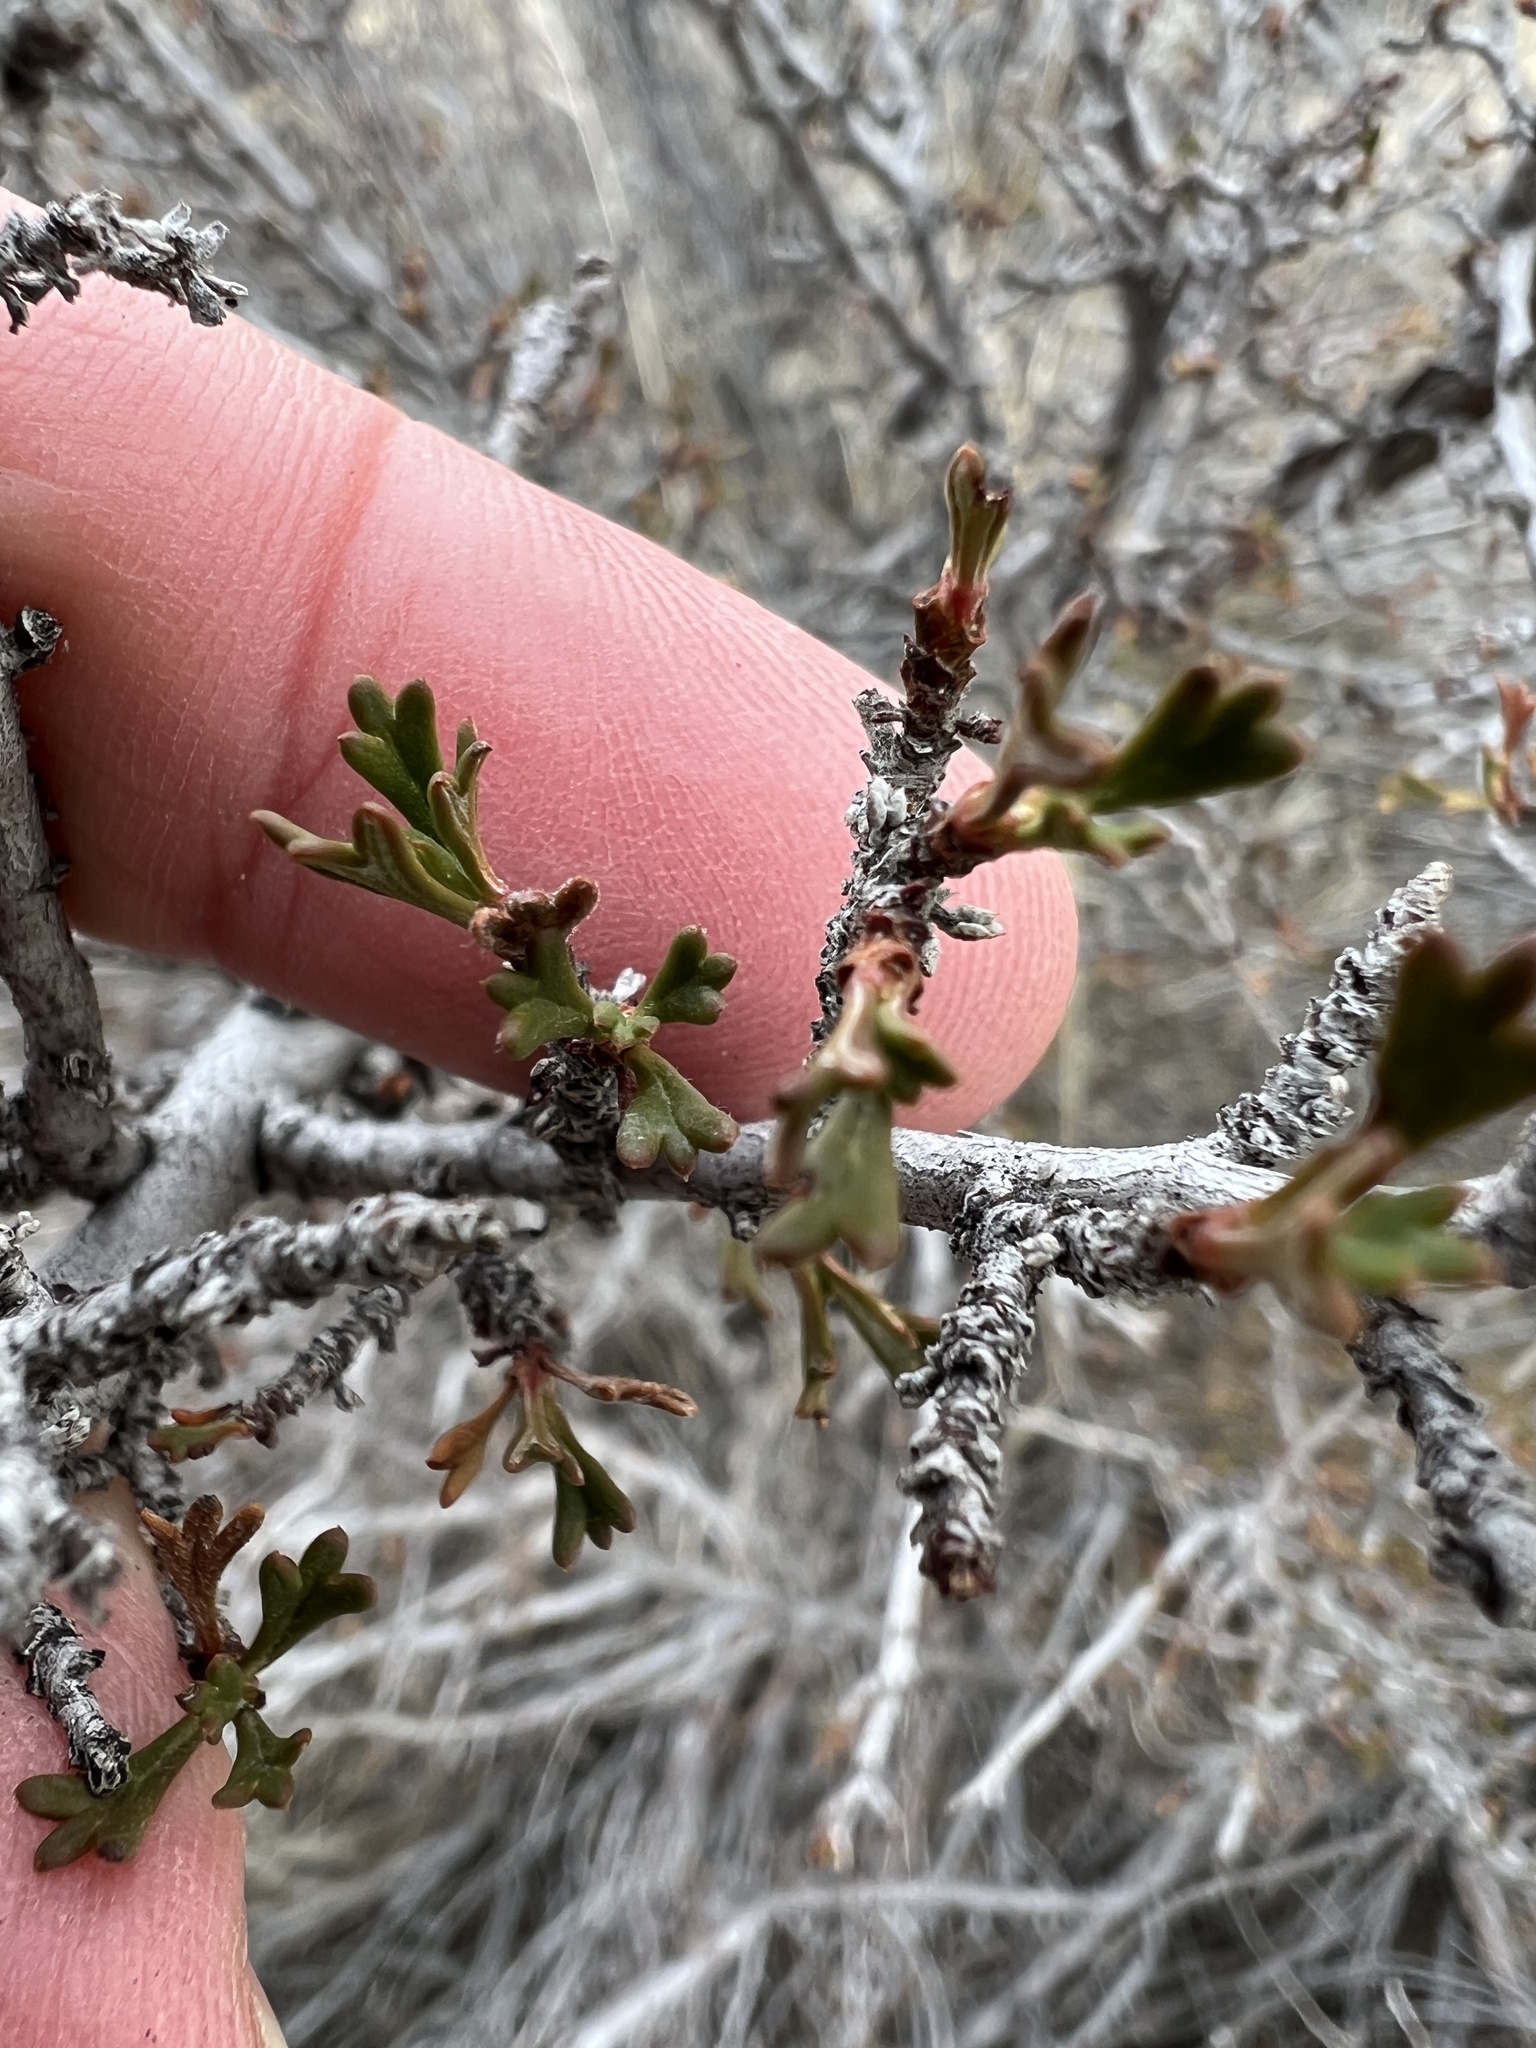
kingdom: Plantae
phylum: Tracheophyta
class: Magnoliopsida
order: Rosales
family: Rosaceae
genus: Purshia
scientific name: Purshia tridentata
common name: Antelope bitterbrush
